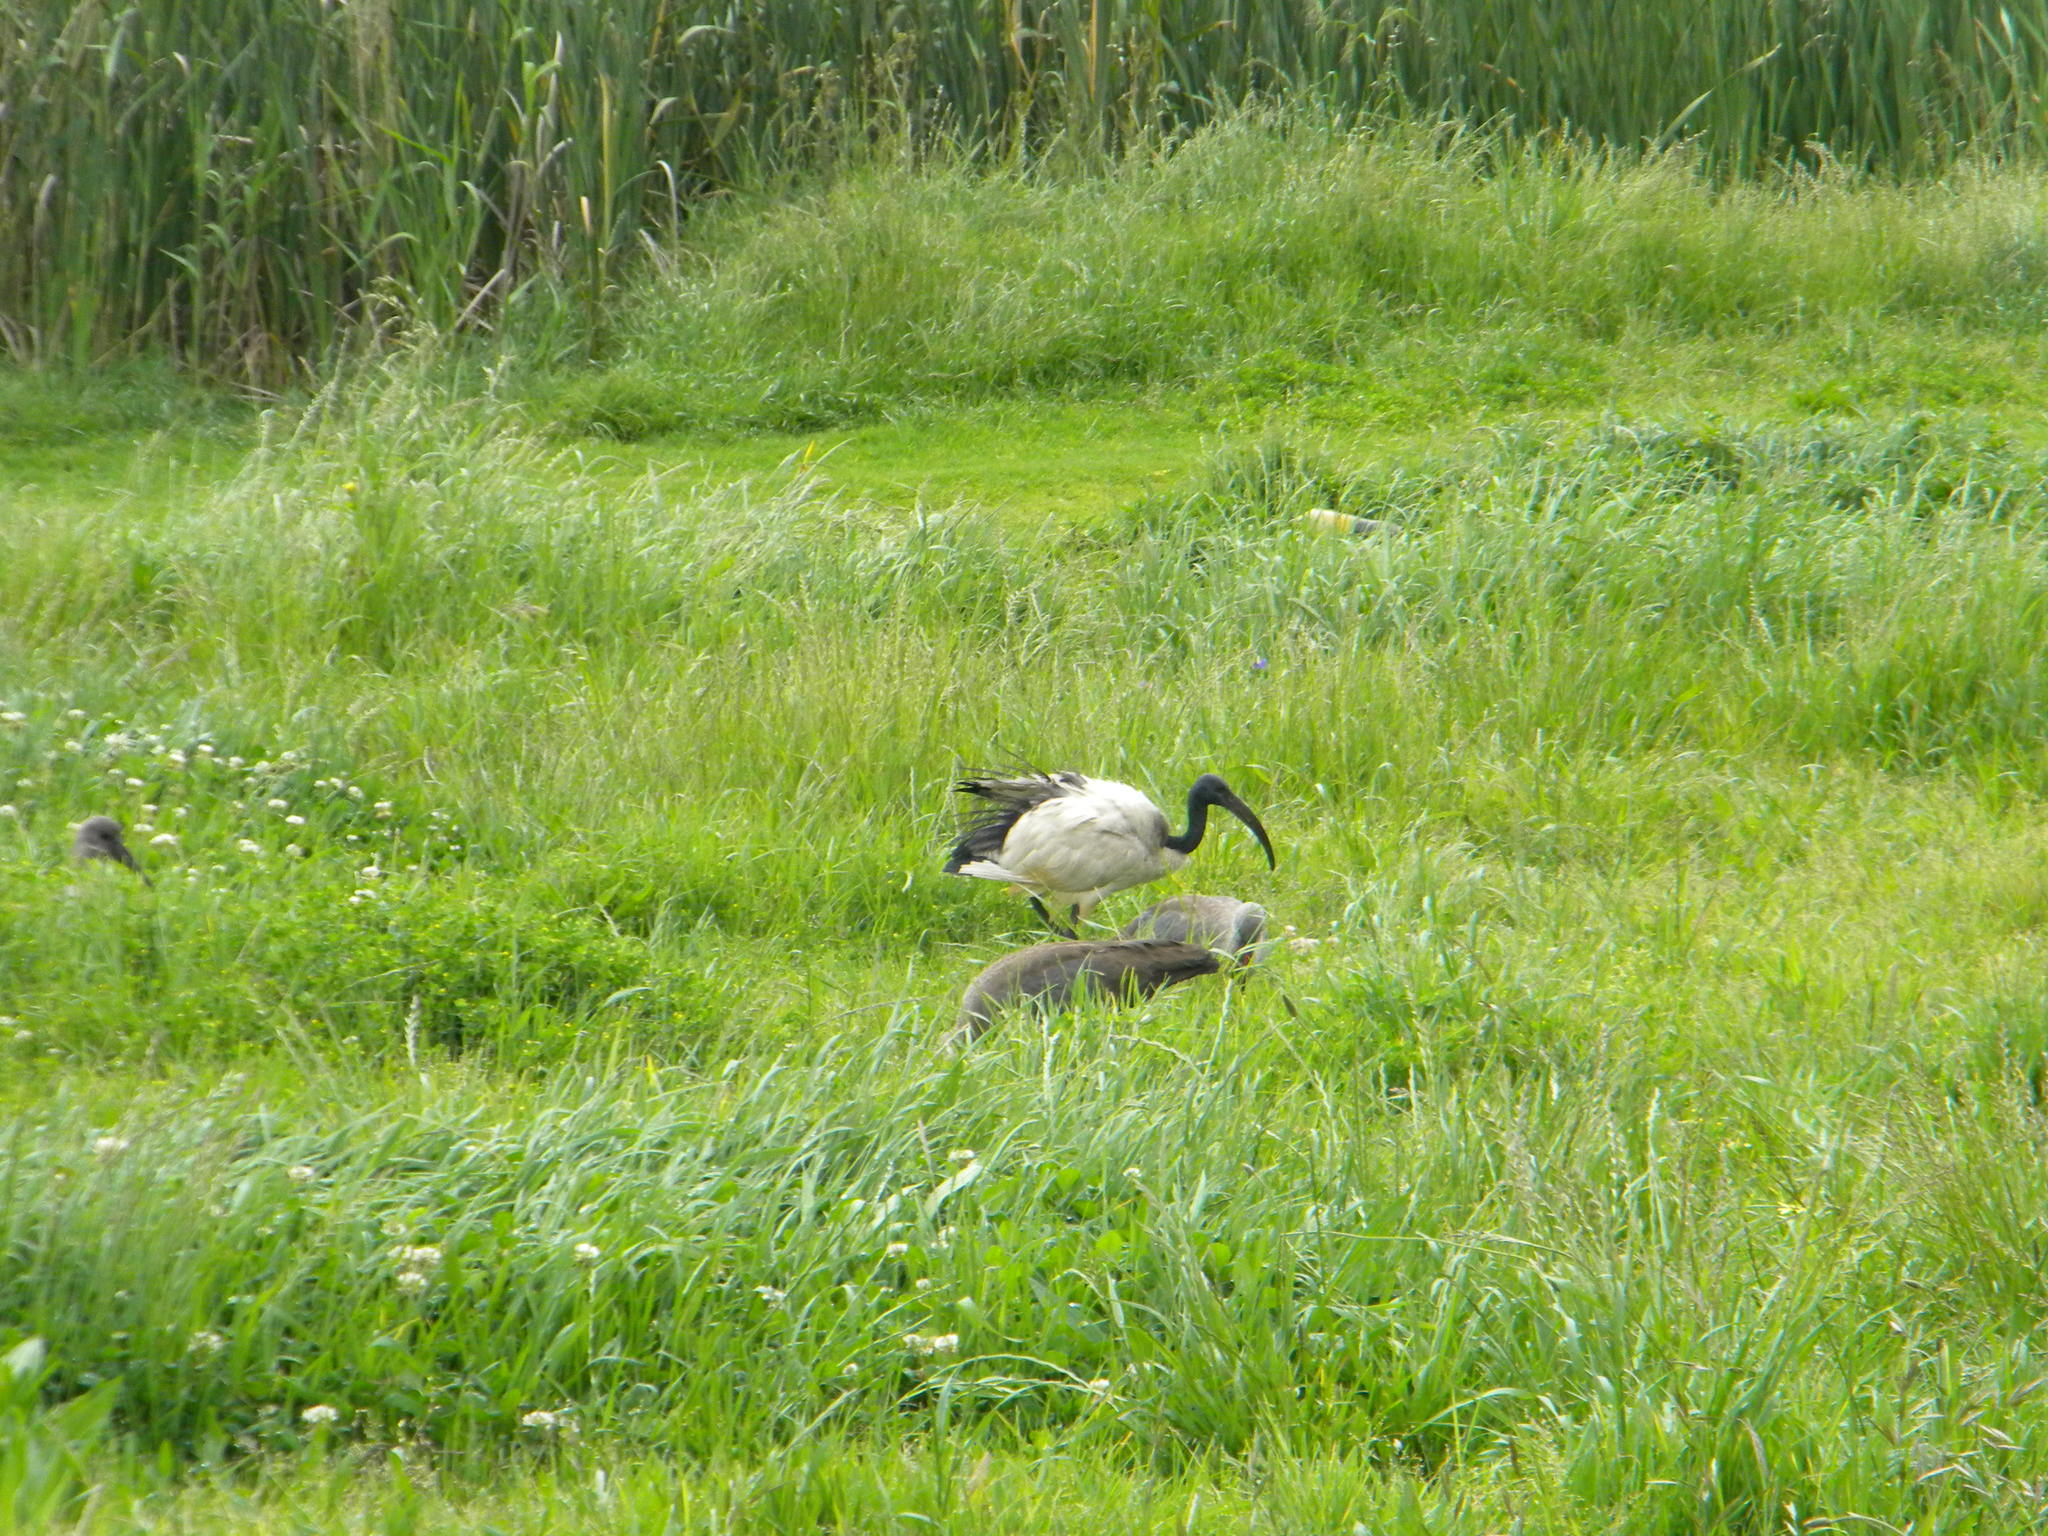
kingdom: Animalia
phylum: Chordata
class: Aves
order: Pelecaniformes
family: Threskiornithidae
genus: Threskiornis
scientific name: Threskiornis aethiopicus
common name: Sacred ibis
